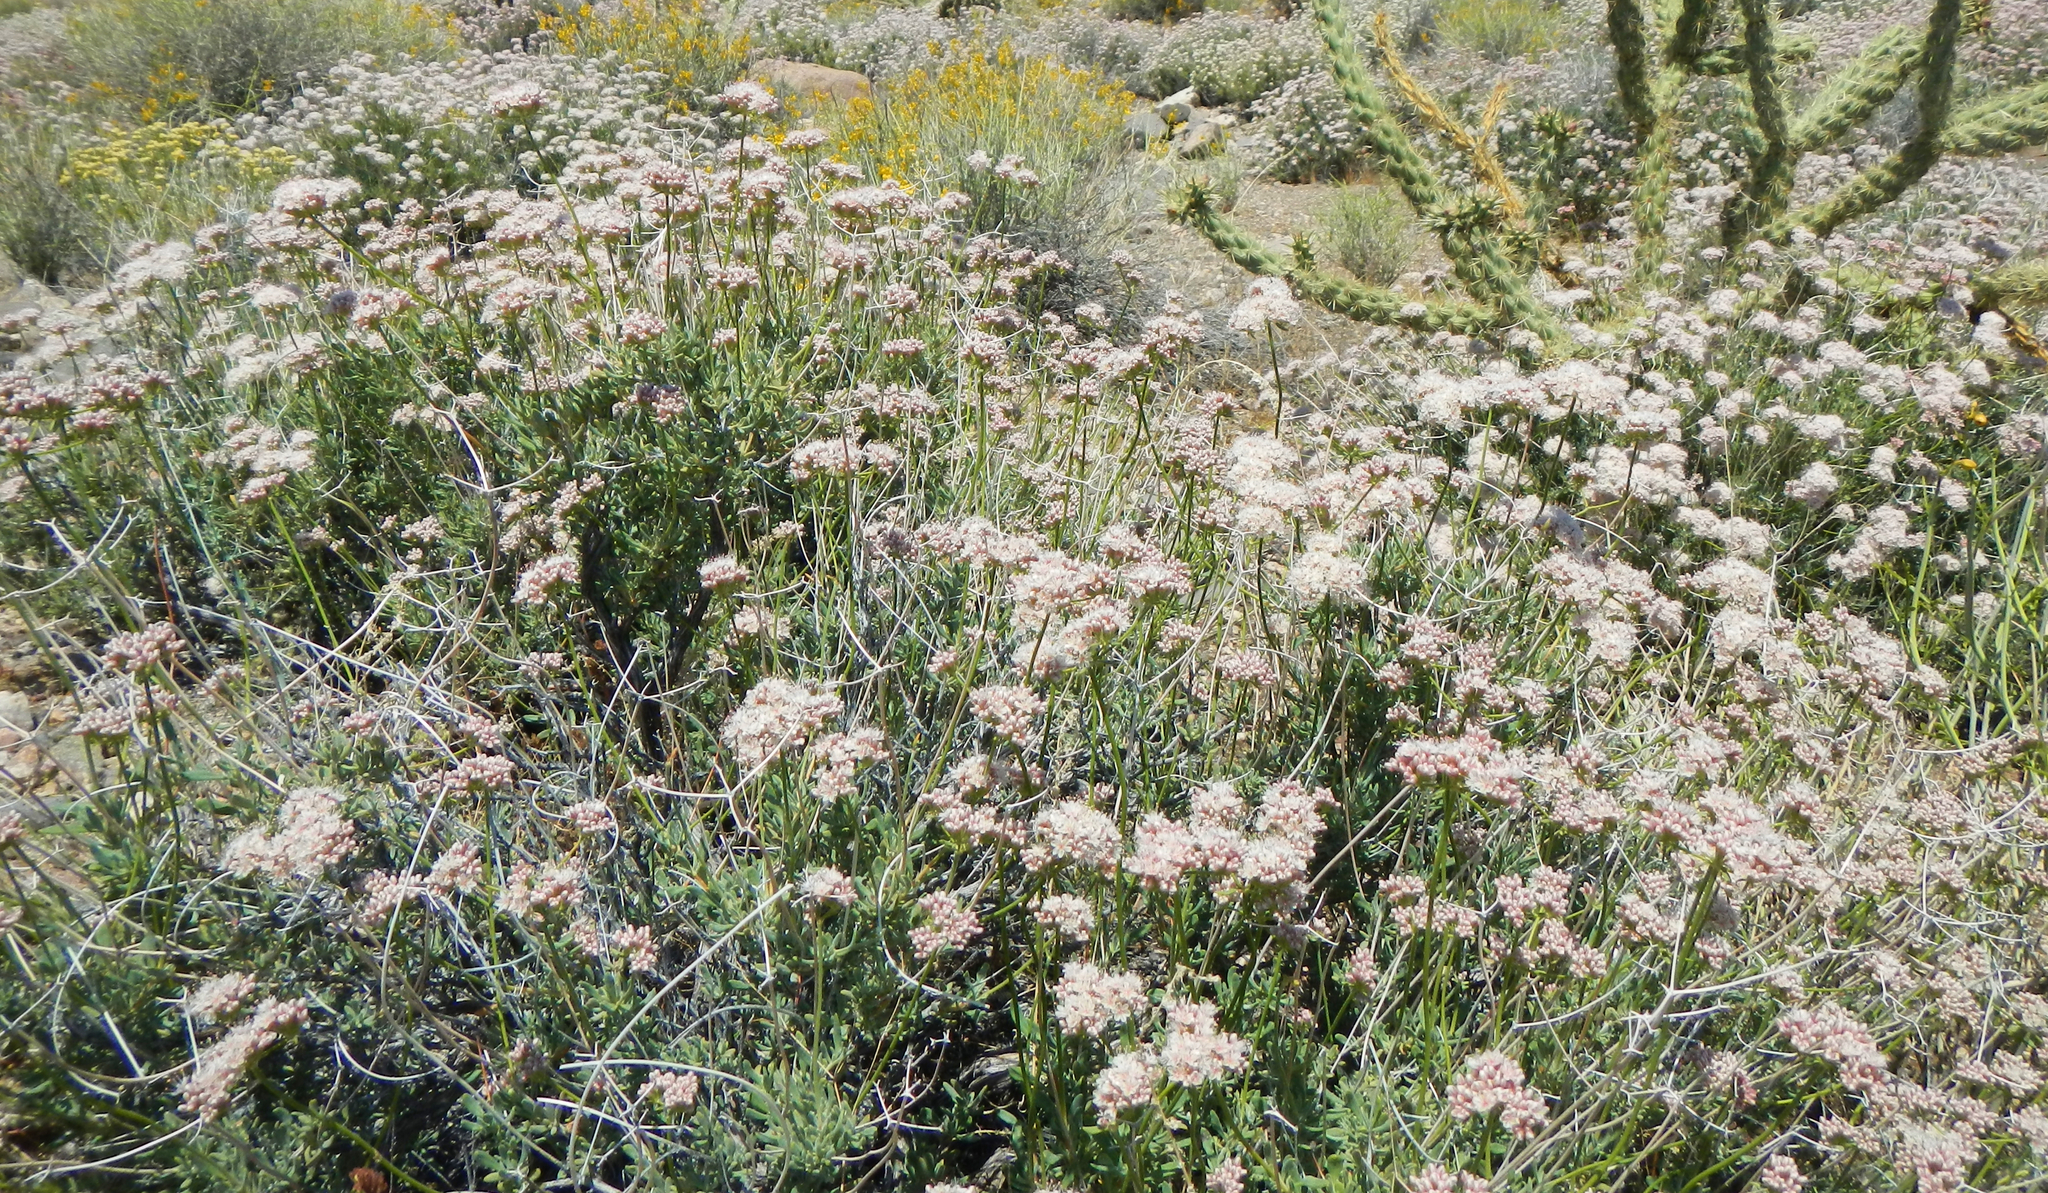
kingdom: Plantae
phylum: Tracheophyta
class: Magnoliopsida
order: Caryophyllales
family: Polygonaceae
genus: Eriogonum
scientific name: Eriogonum fasciculatum
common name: California wild buckwheat
